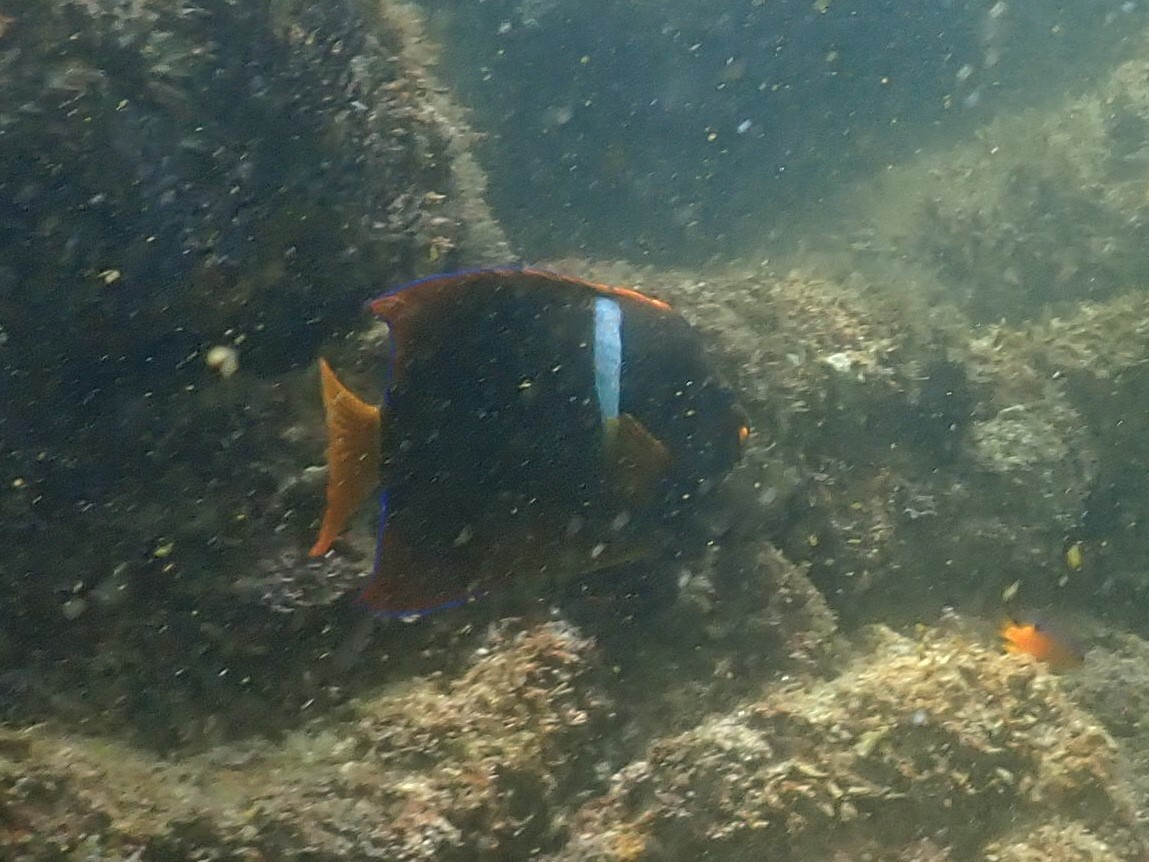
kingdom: Animalia
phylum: Chordata
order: Perciformes
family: Pomacanthidae
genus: Holacanthus
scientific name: Holacanthus passer
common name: King angelfish
